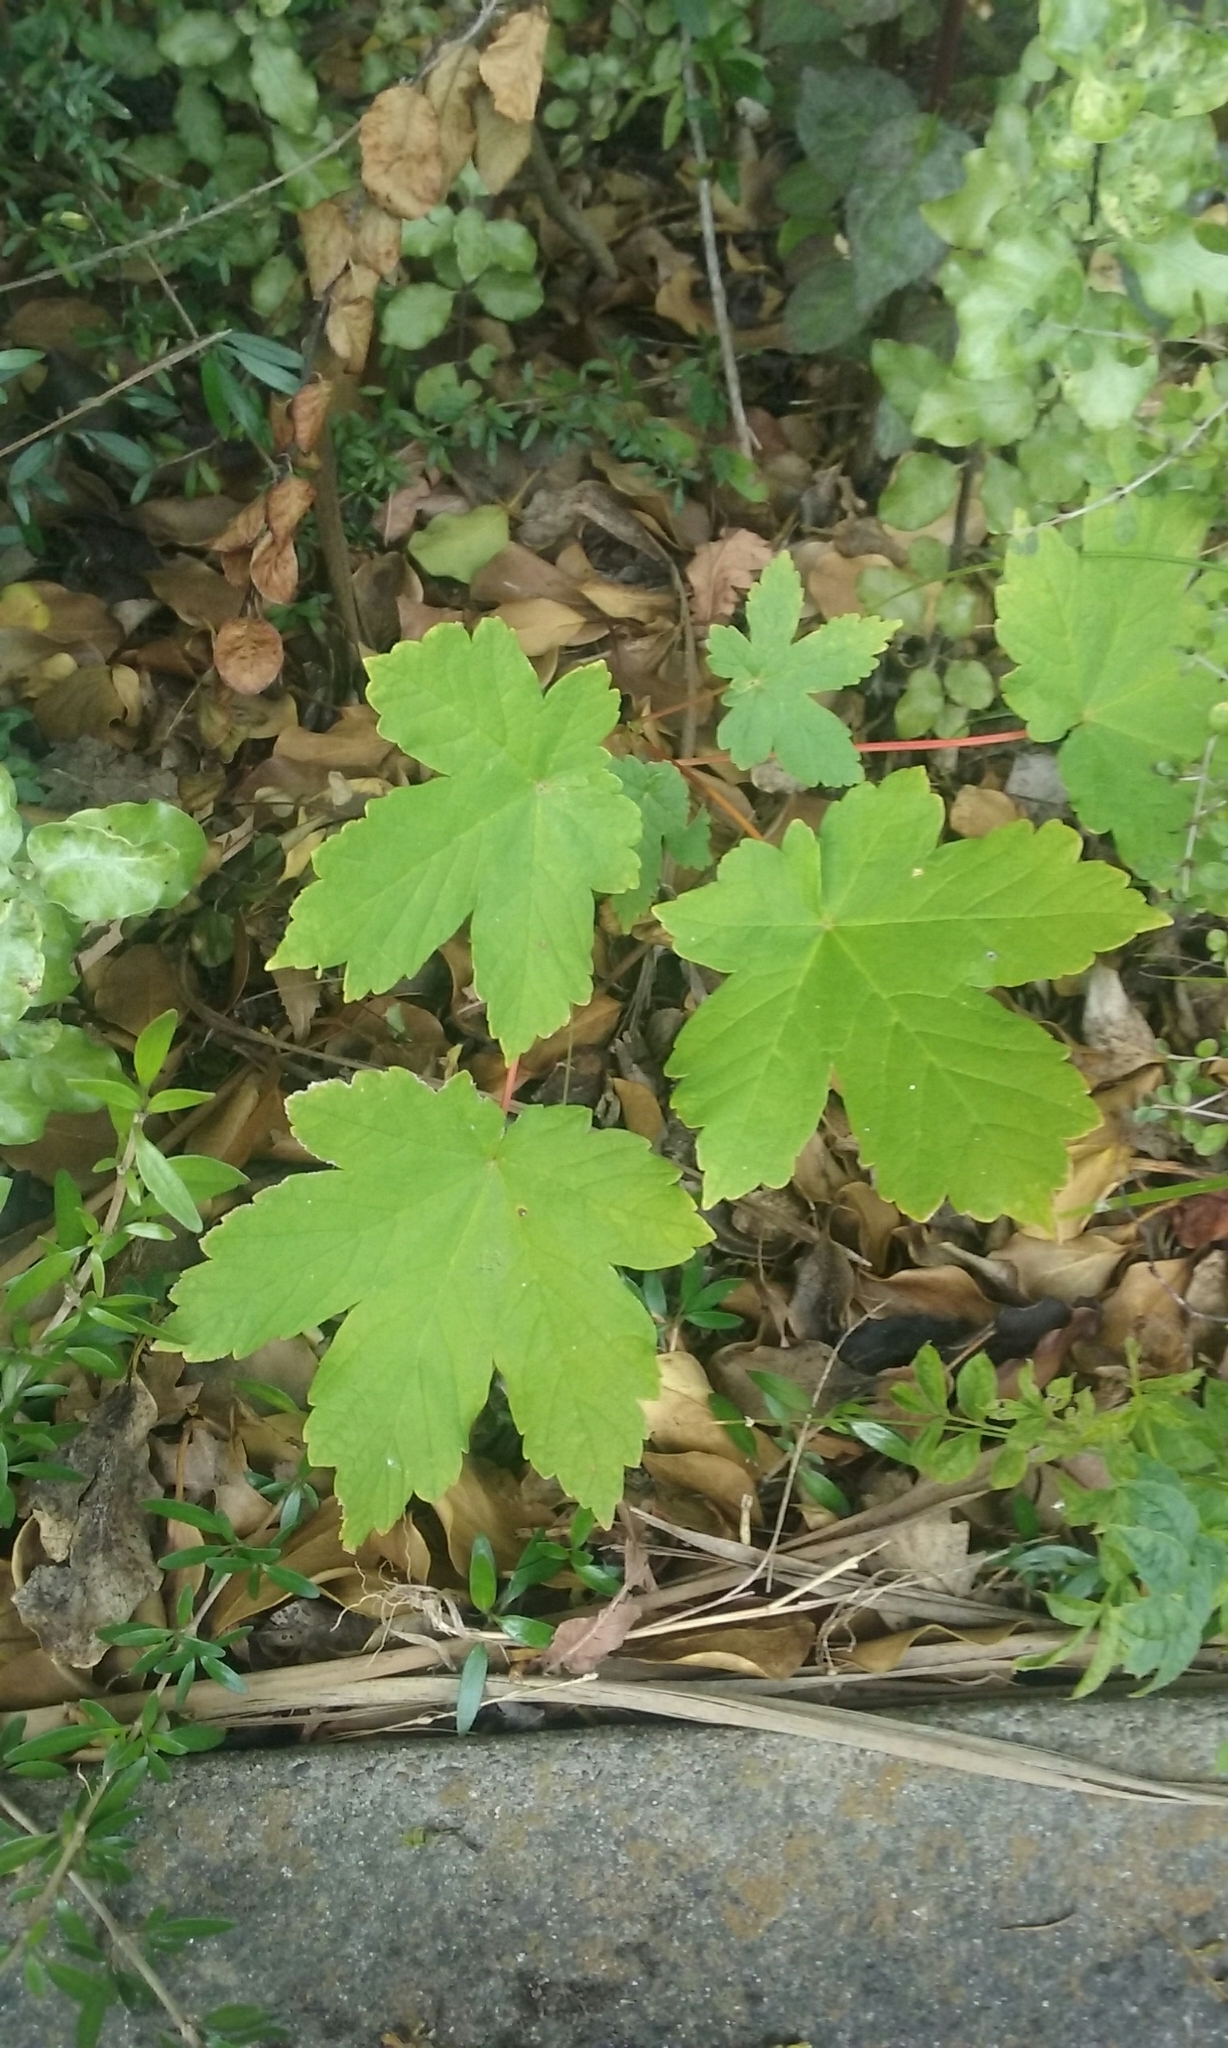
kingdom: Plantae
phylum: Tracheophyta
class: Magnoliopsida
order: Sapindales
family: Sapindaceae
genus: Acer
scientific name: Acer pseudoplatanus
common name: Sycamore
